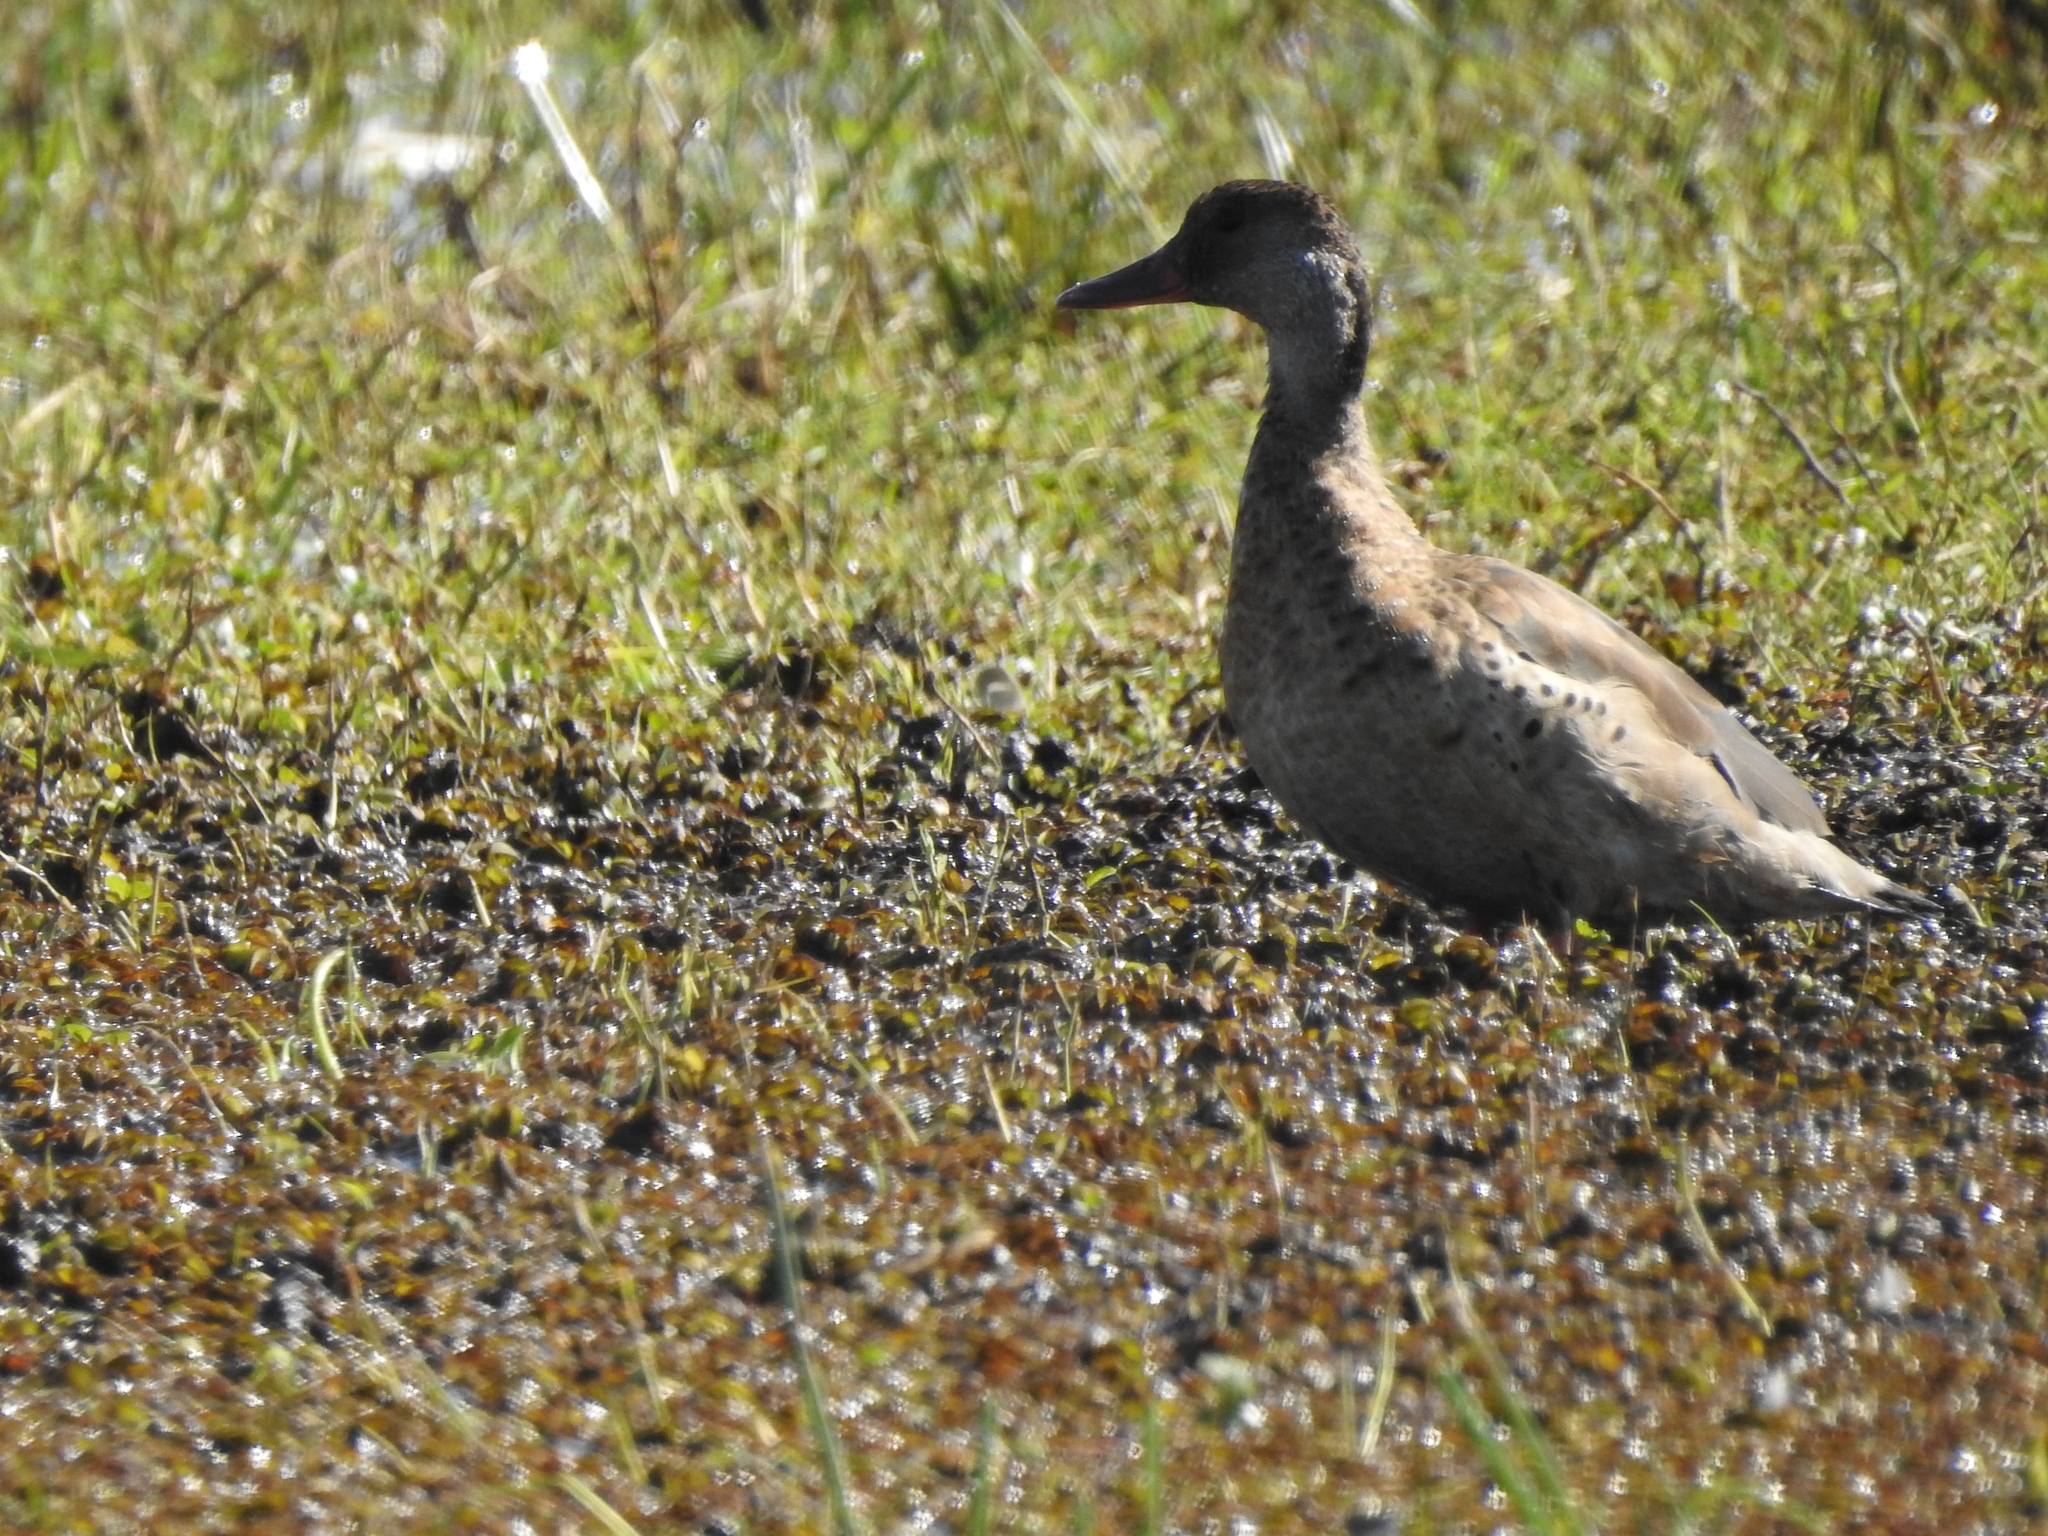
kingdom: Animalia
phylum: Chordata
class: Aves
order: Anseriformes
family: Anatidae
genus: Amazonetta
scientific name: Amazonetta brasiliensis
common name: Brazilian teal
